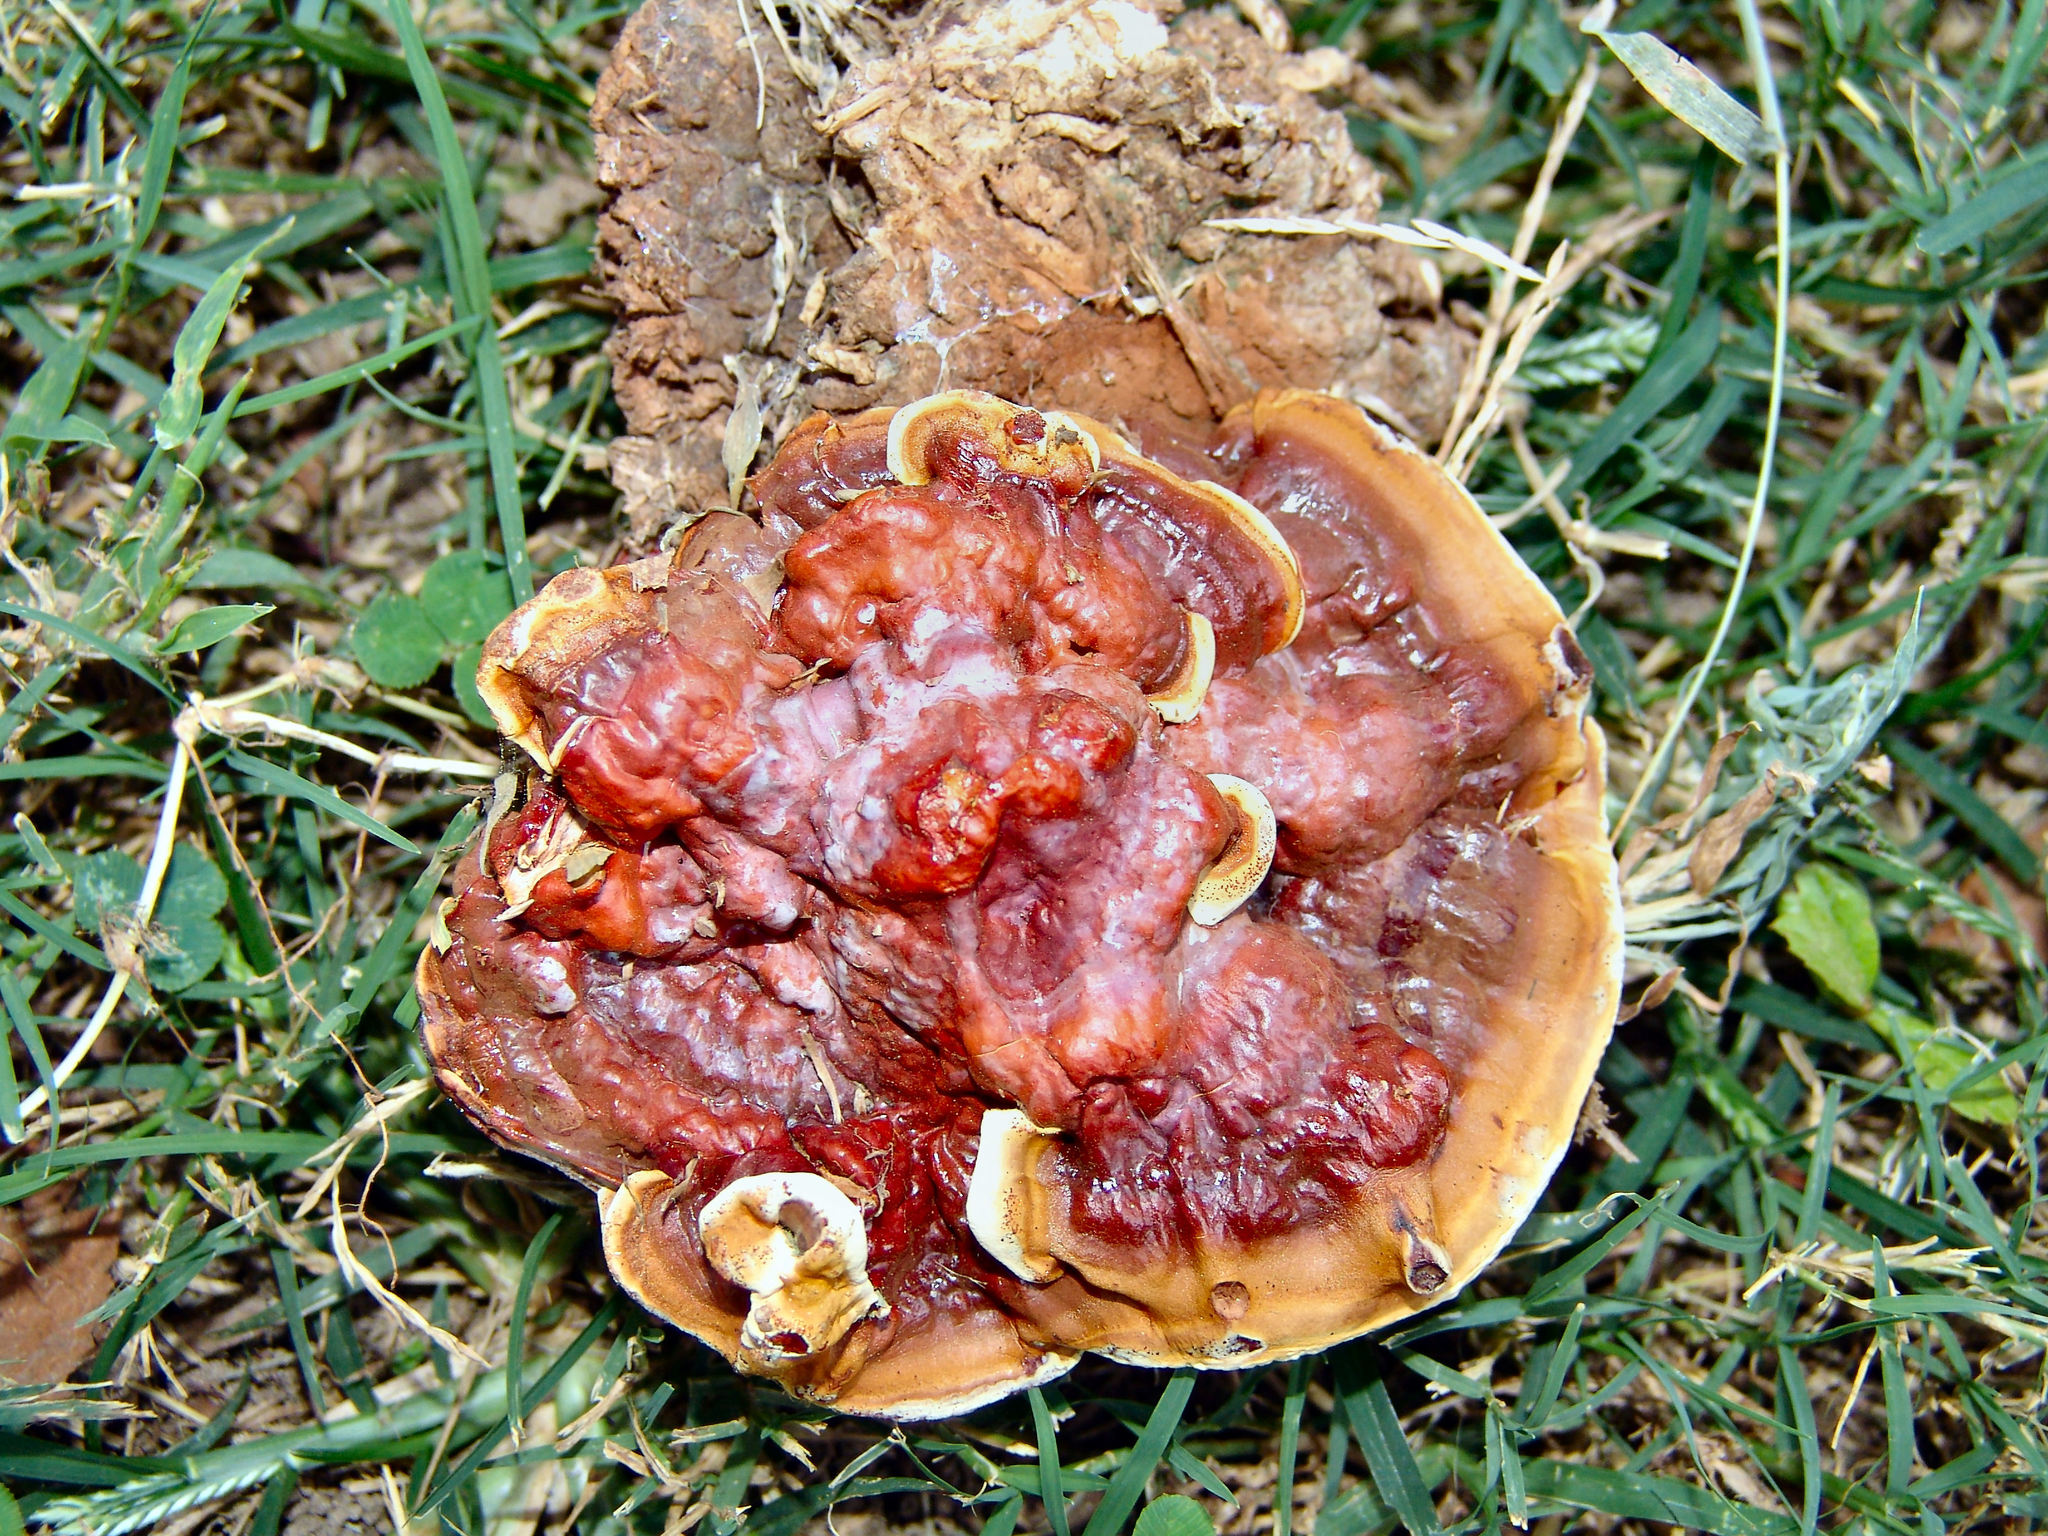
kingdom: Fungi
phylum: Basidiomycota
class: Agaricomycetes
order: Polyporales
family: Polyporaceae
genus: Ganoderma
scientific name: Ganoderma resinaceum
